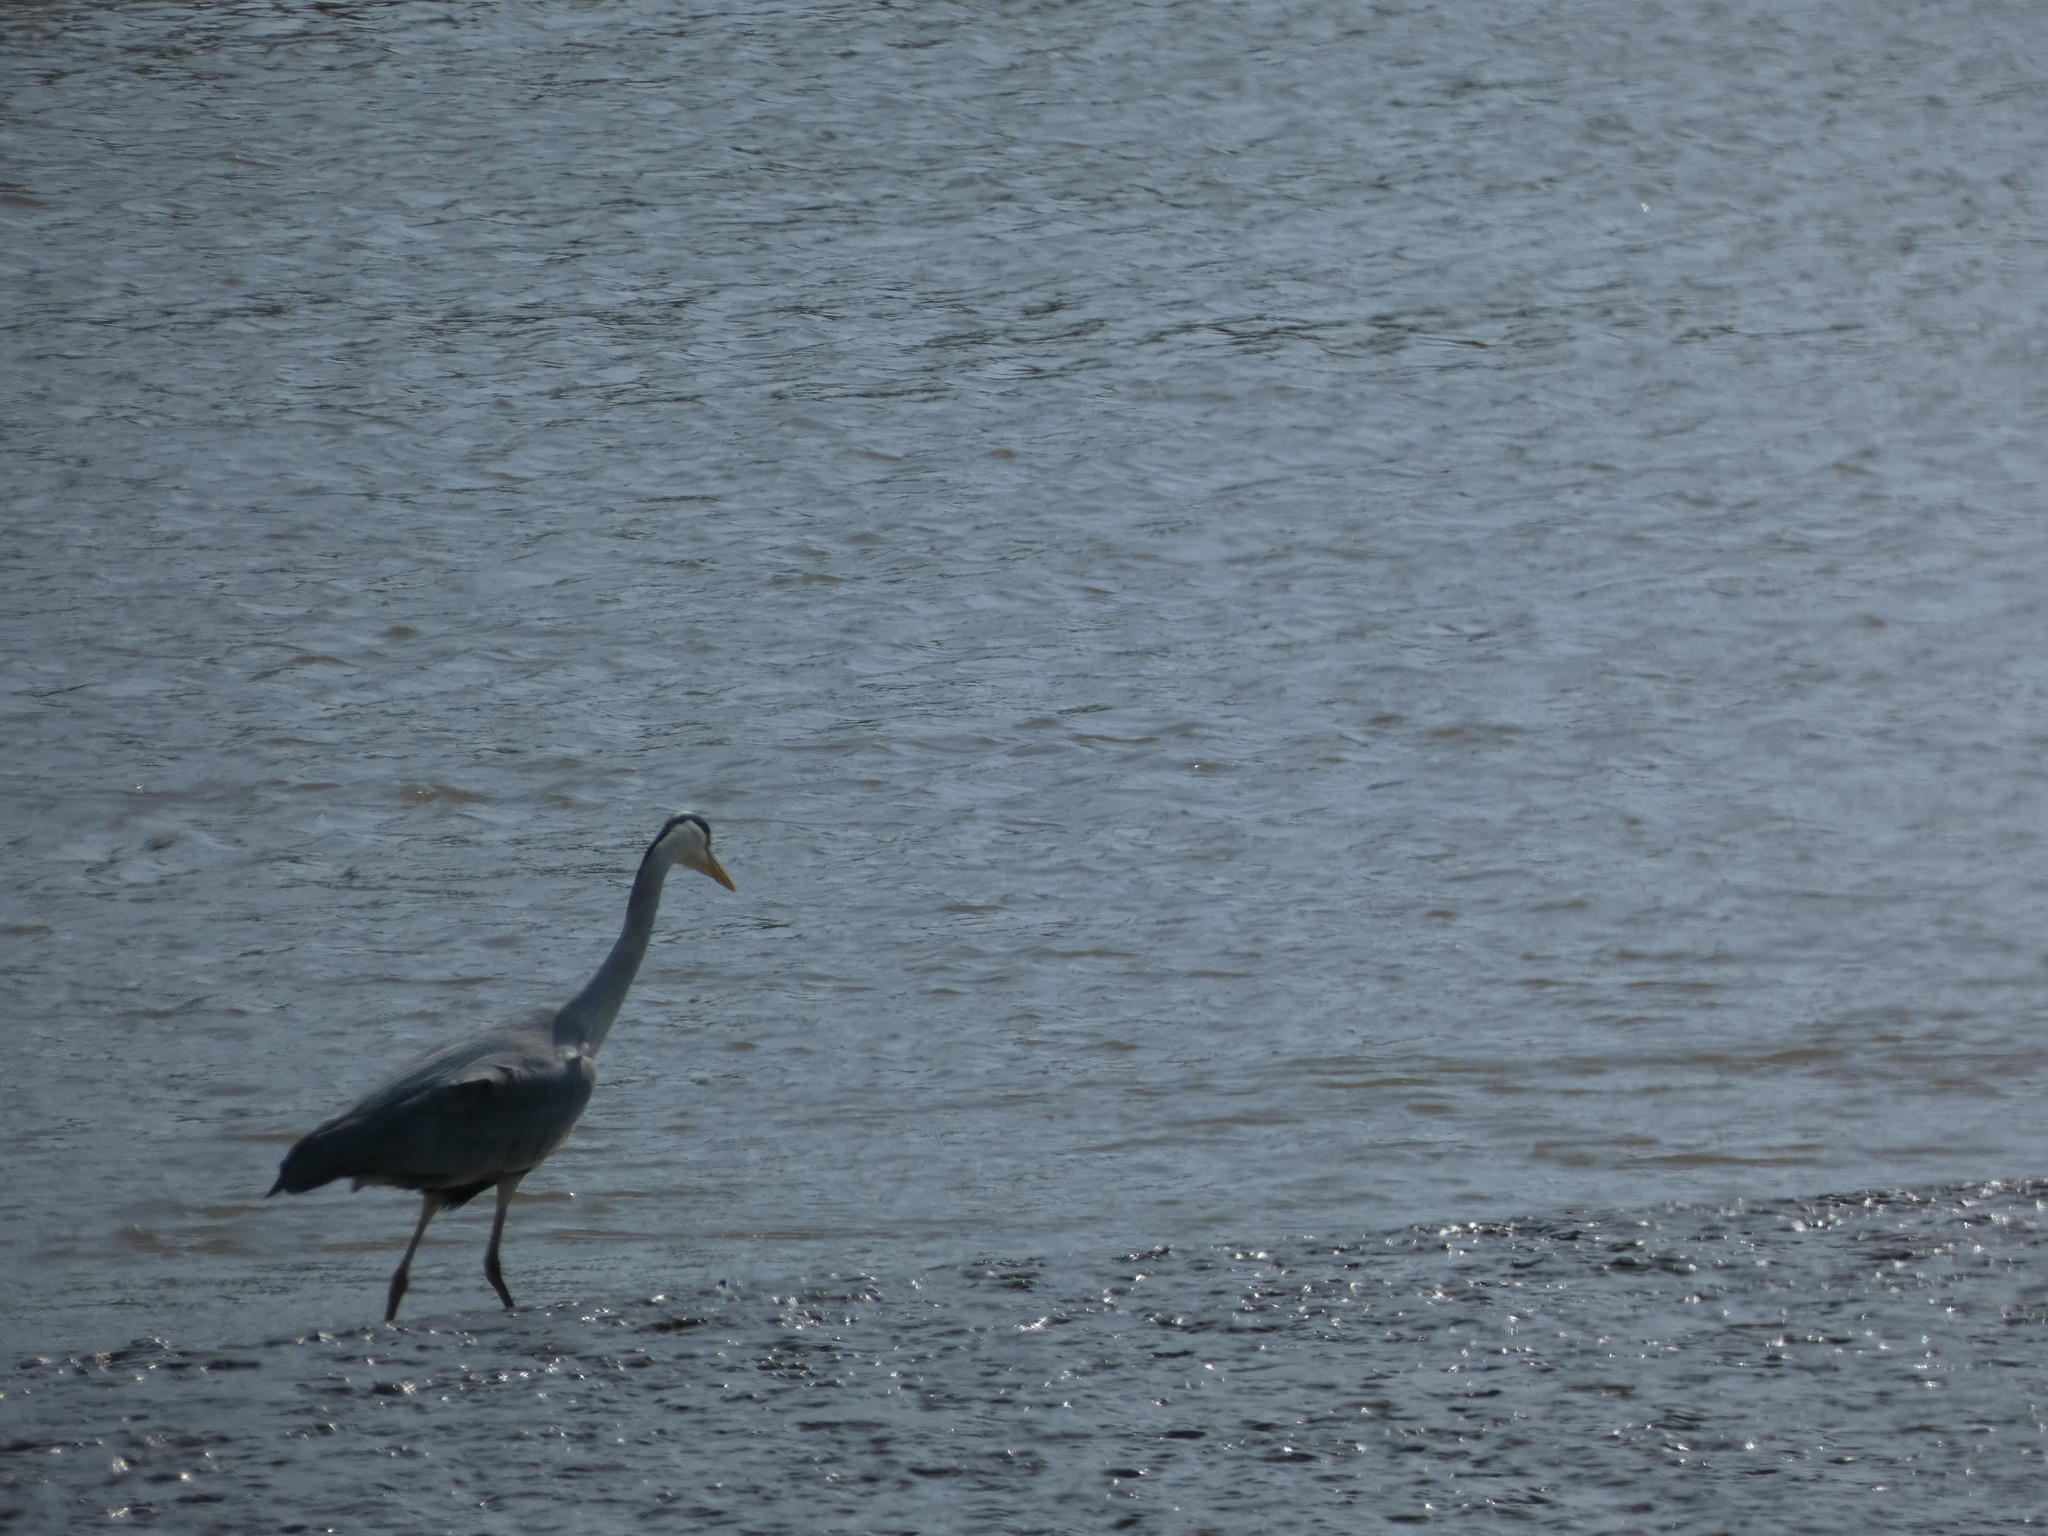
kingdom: Animalia
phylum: Chordata
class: Aves
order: Pelecaniformes
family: Ardeidae
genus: Ardea
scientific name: Ardea cinerea
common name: Grey heron
